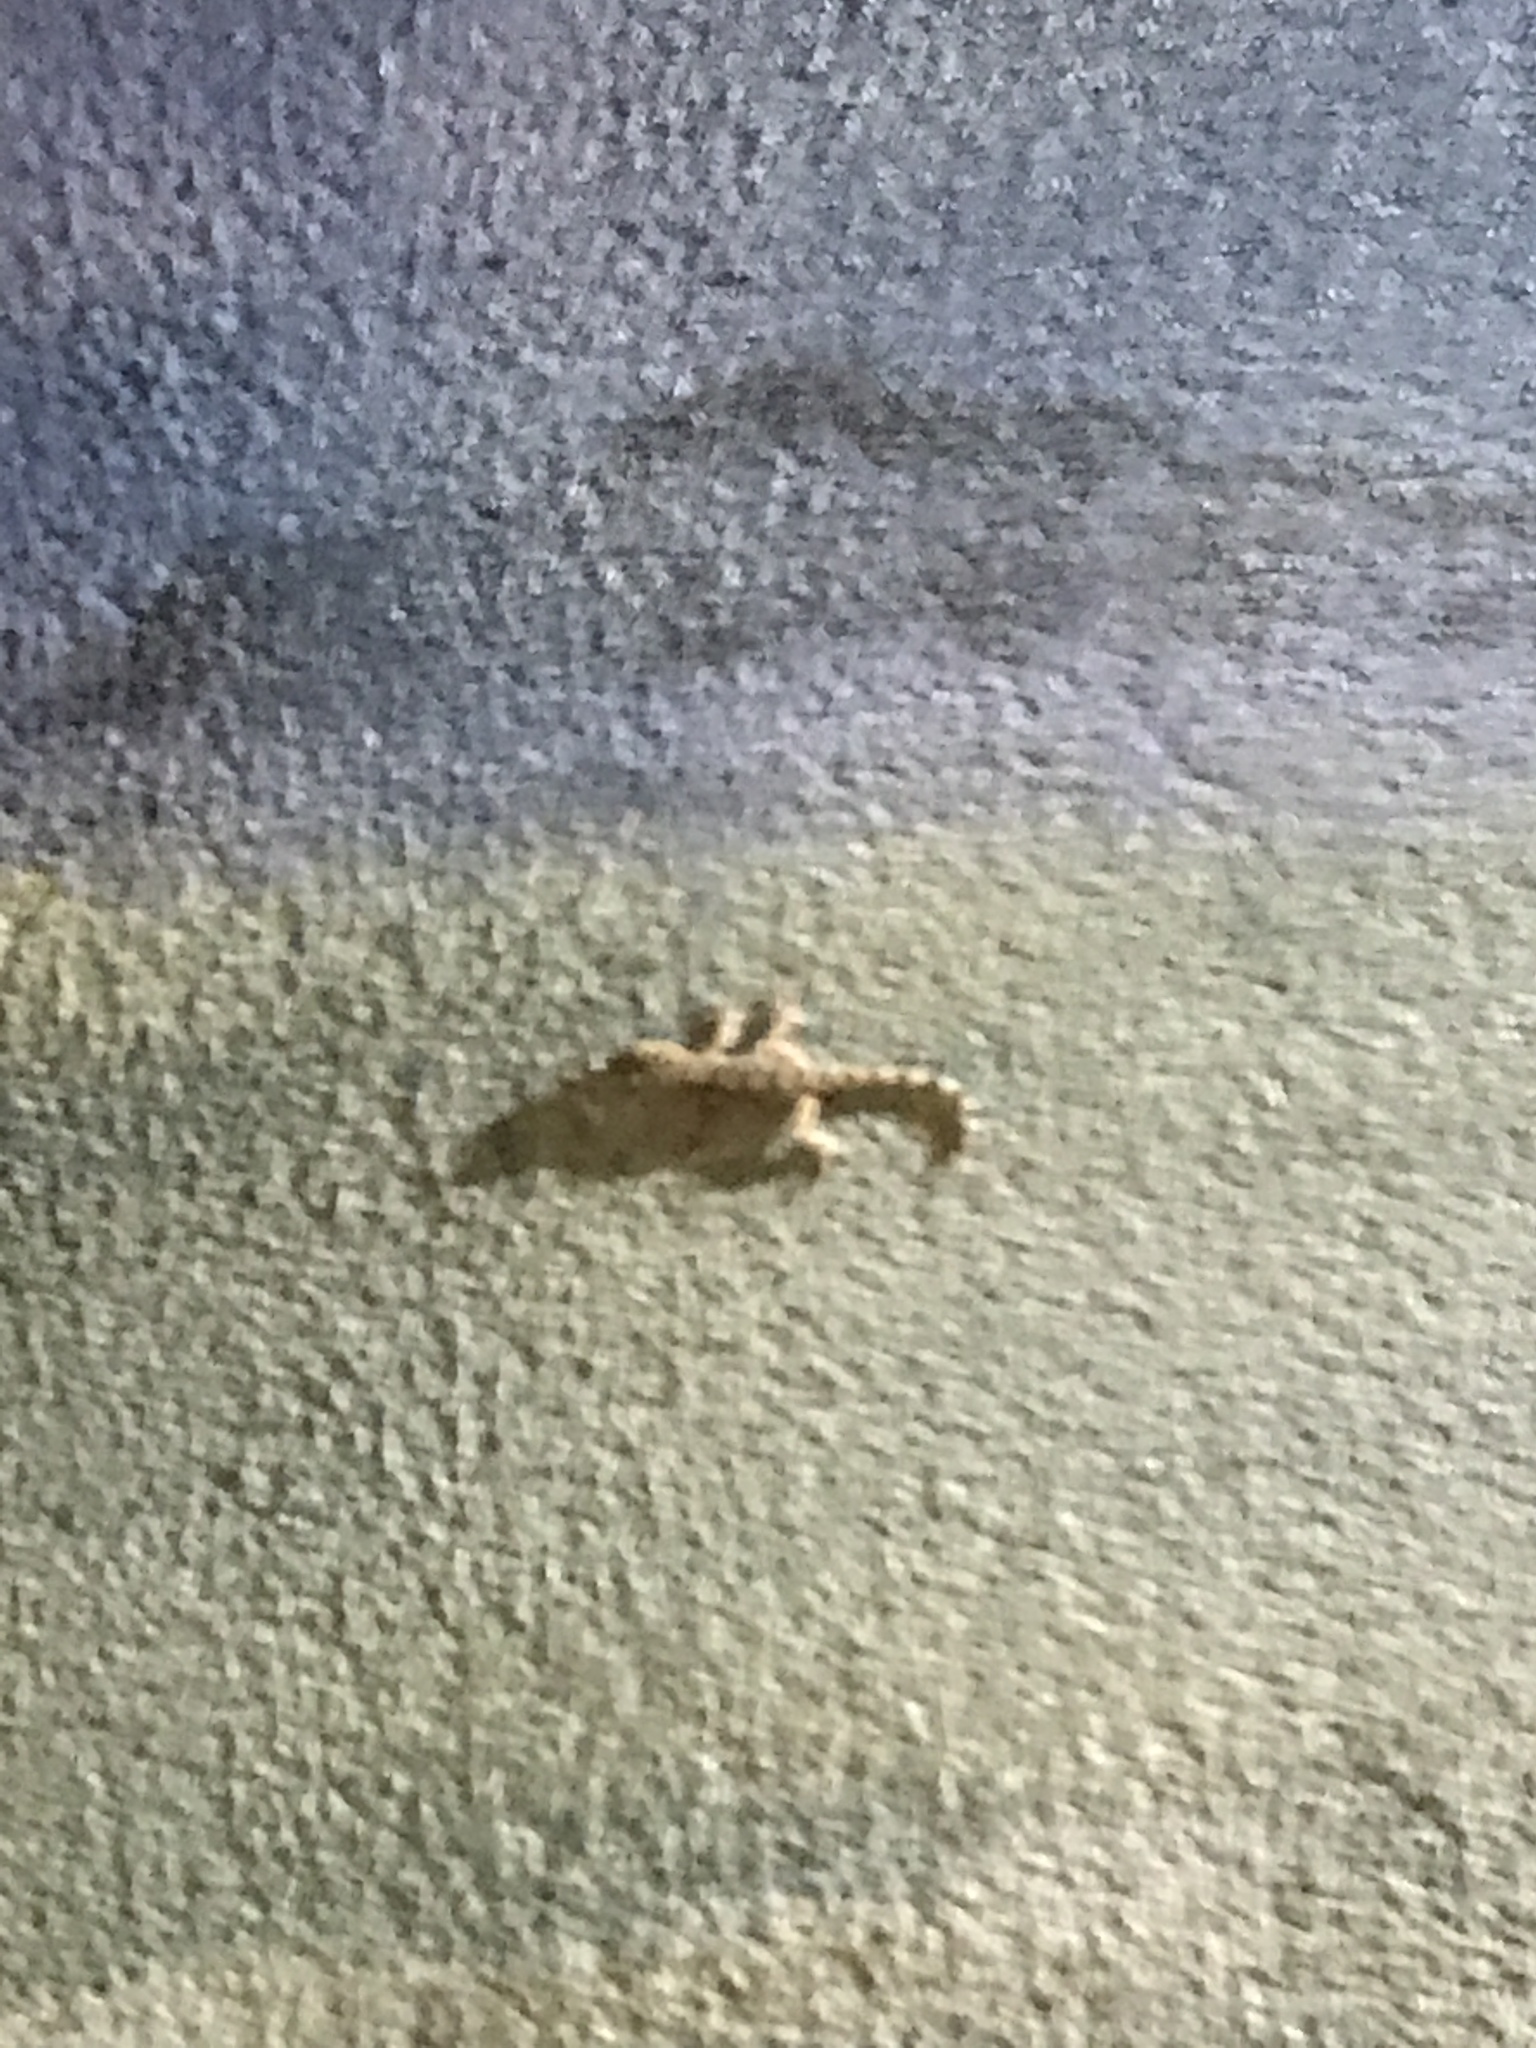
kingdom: Animalia
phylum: Chordata
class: Squamata
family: Phyllodactylidae
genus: Tarentola
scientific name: Tarentola mauritanica
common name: Moorish gecko
